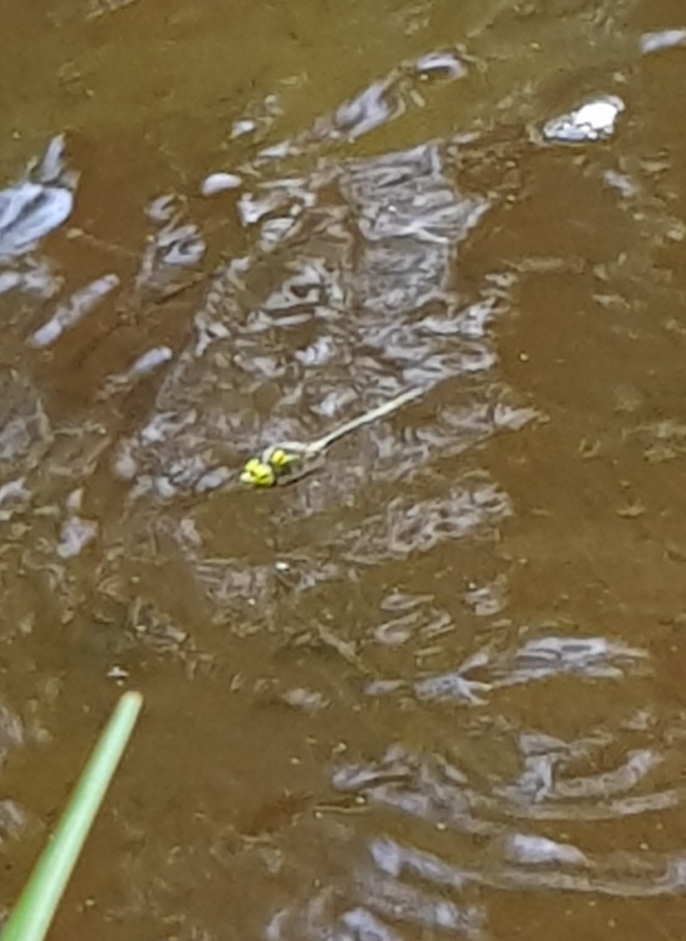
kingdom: Animalia
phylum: Arthropoda
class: Insecta
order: Odonata
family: Corduliidae
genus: Somatochlora
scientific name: Somatochlora metallica
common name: Brilliant emerald
